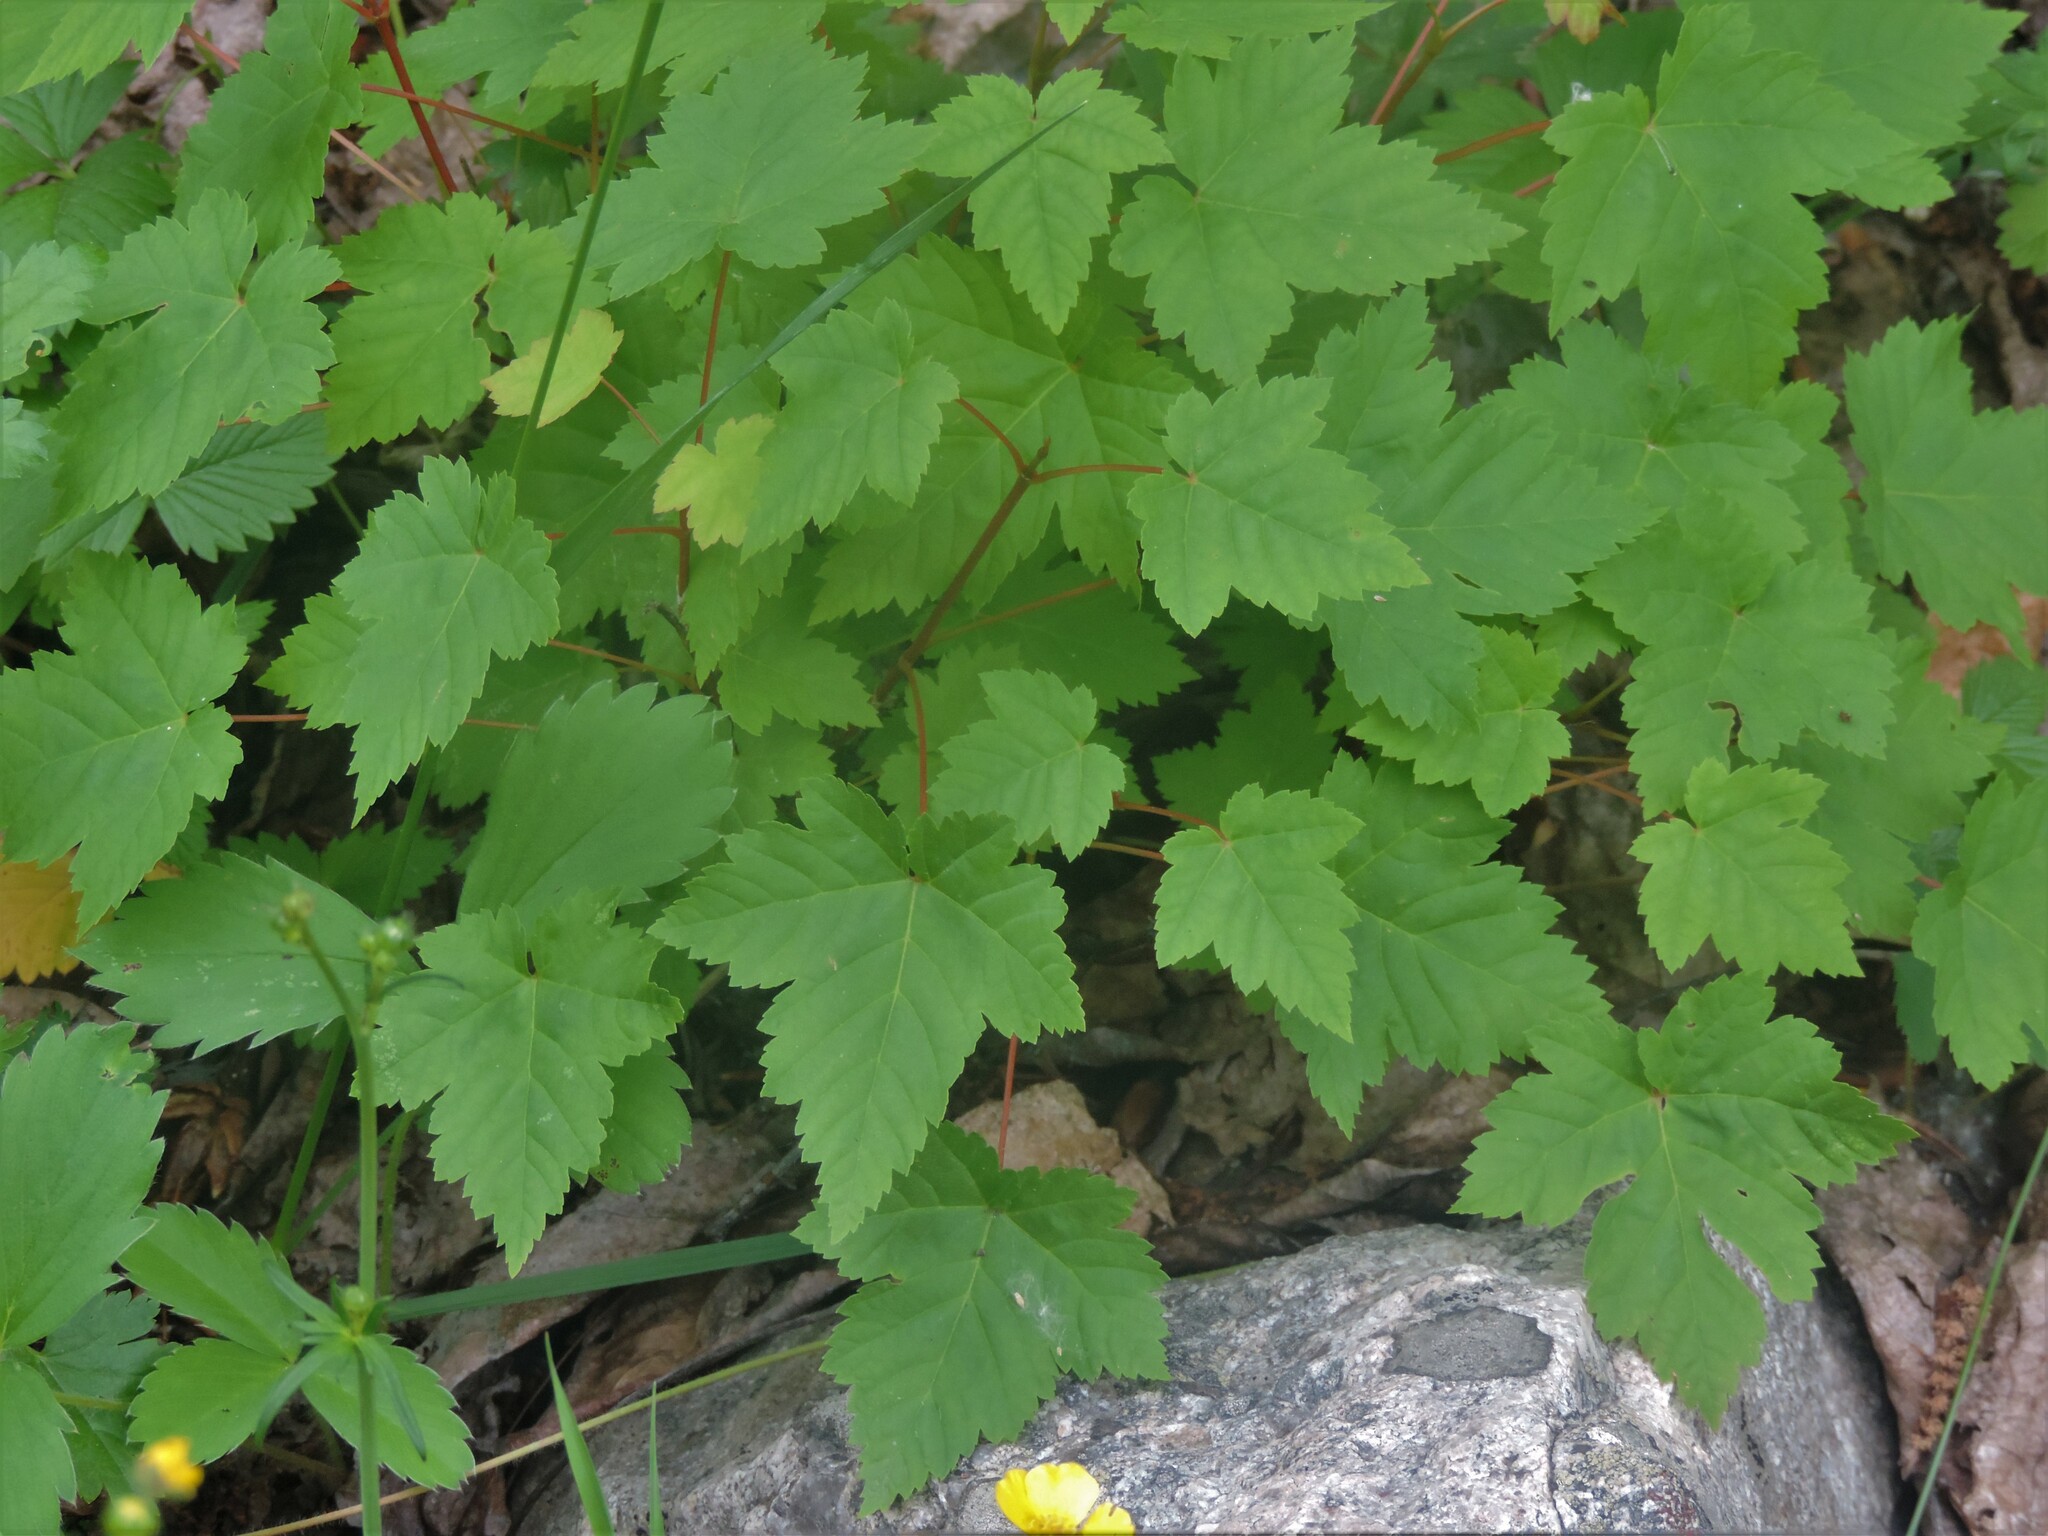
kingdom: Plantae
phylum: Tracheophyta
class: Magnoliopsida
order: Sapindales
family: Sapindaceae
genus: Acer
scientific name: Acer glabrum
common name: Rocky mountain maple
